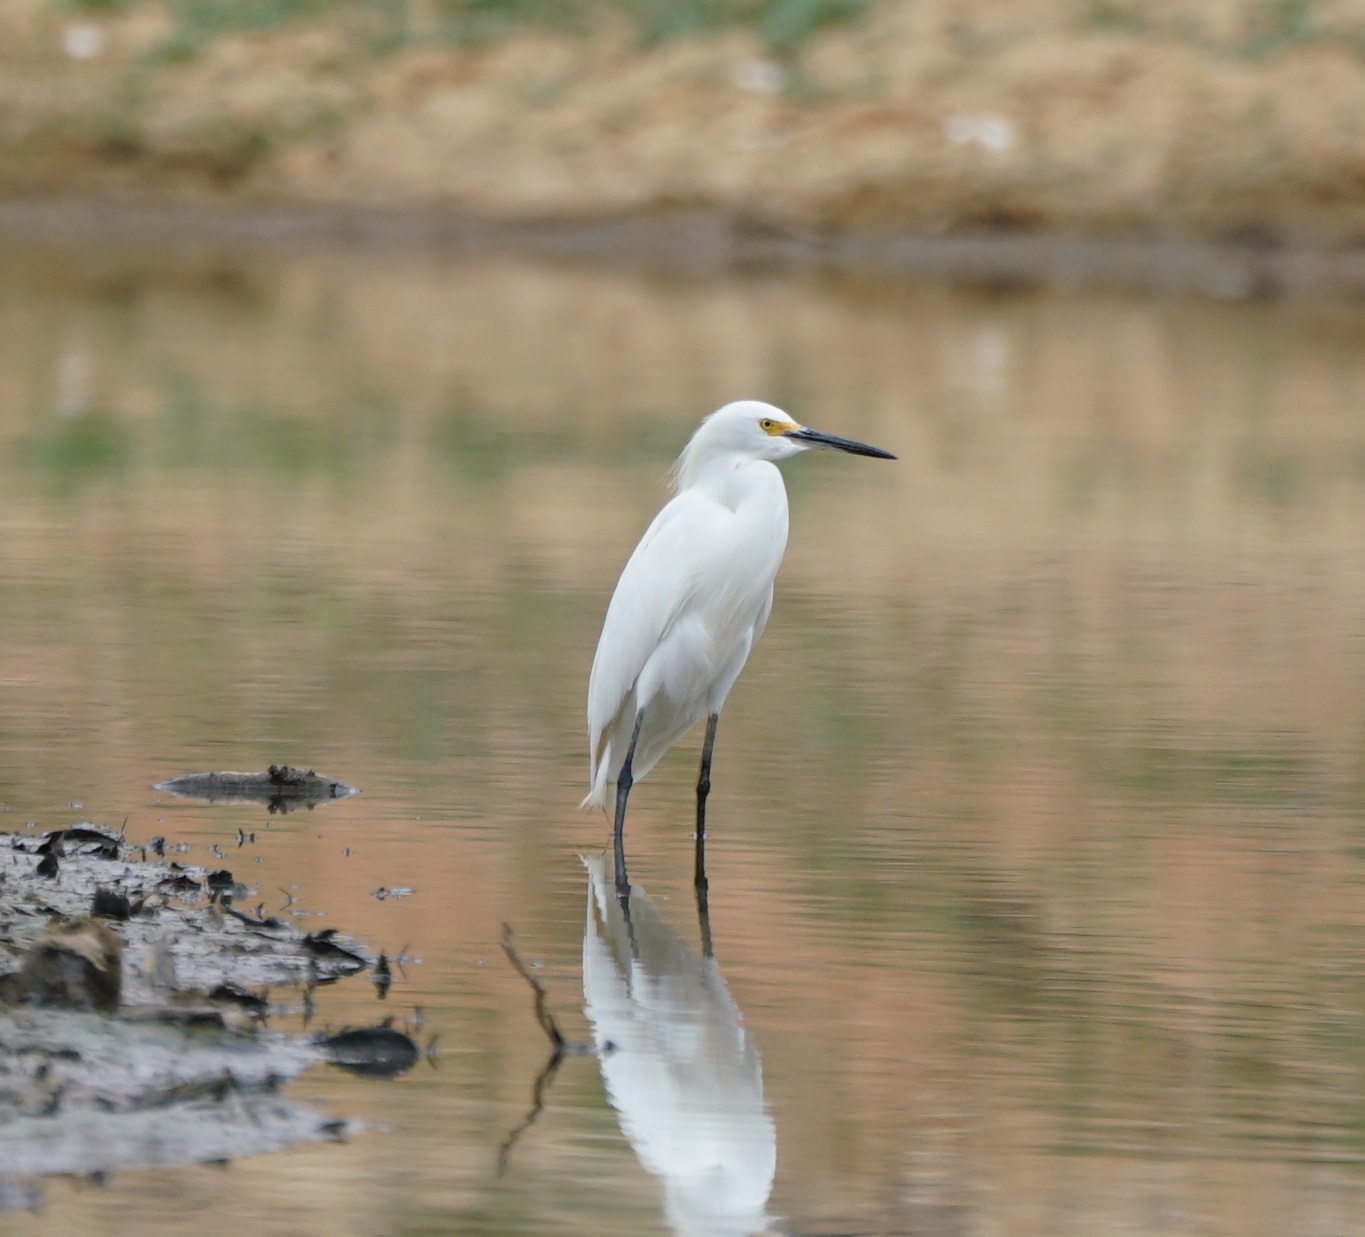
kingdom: Animalia
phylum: Chordata
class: Aves
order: Pelecaniformes
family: Ardeidae
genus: Egretta
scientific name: Egretta thula
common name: Snowy egret
